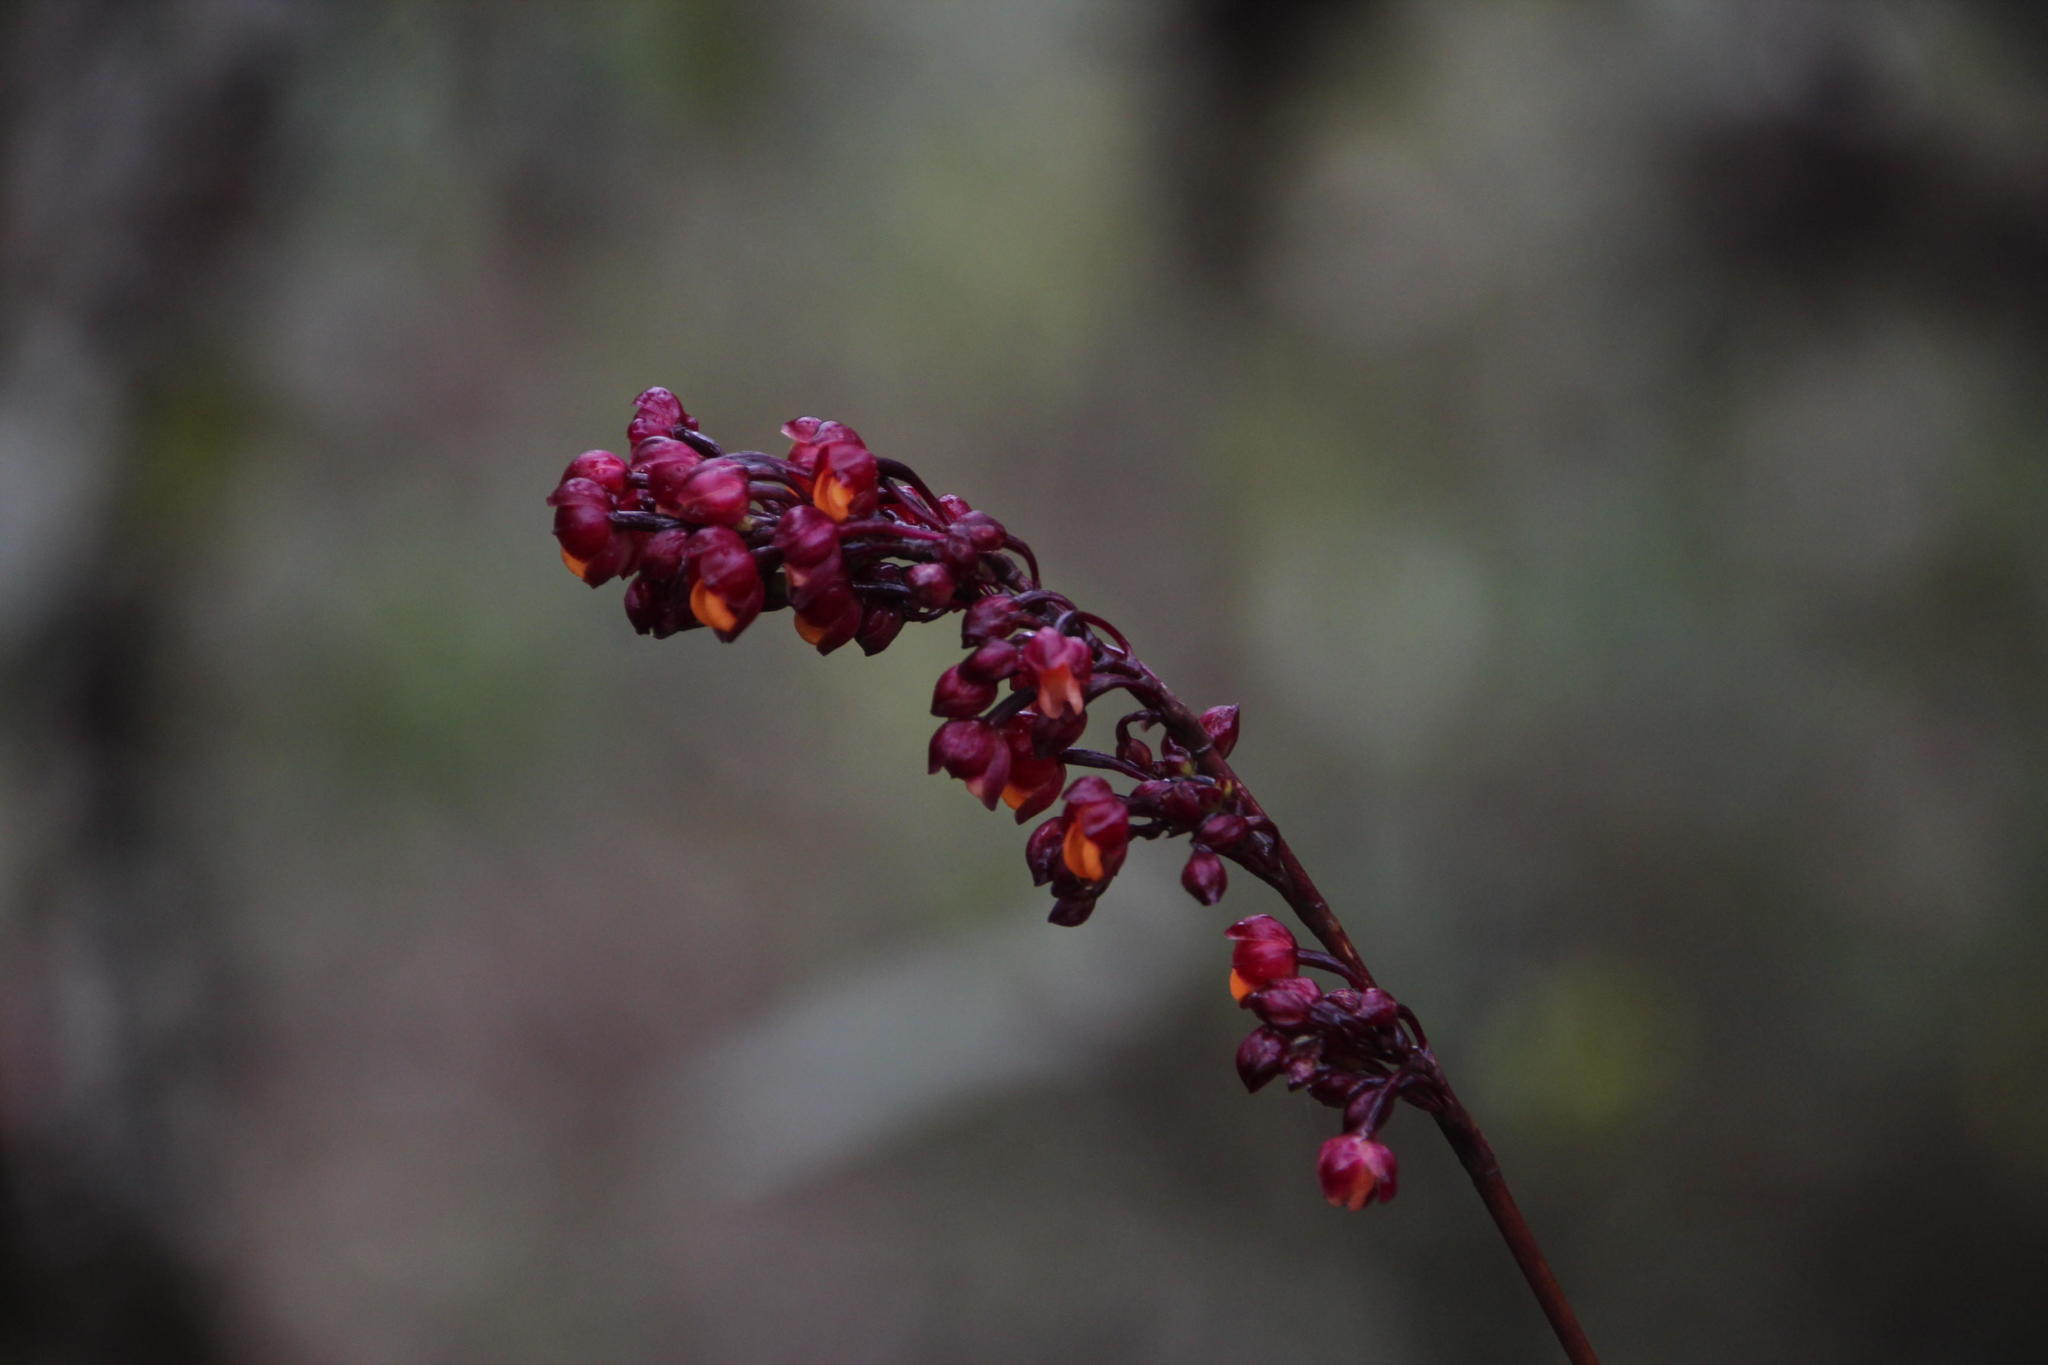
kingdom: Plantae
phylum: Tracheophyta
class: Liliopsida
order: Asparagales
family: Orchidaceae
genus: Cyrtochilum
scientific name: Cyrtochilum rhodoneurum
